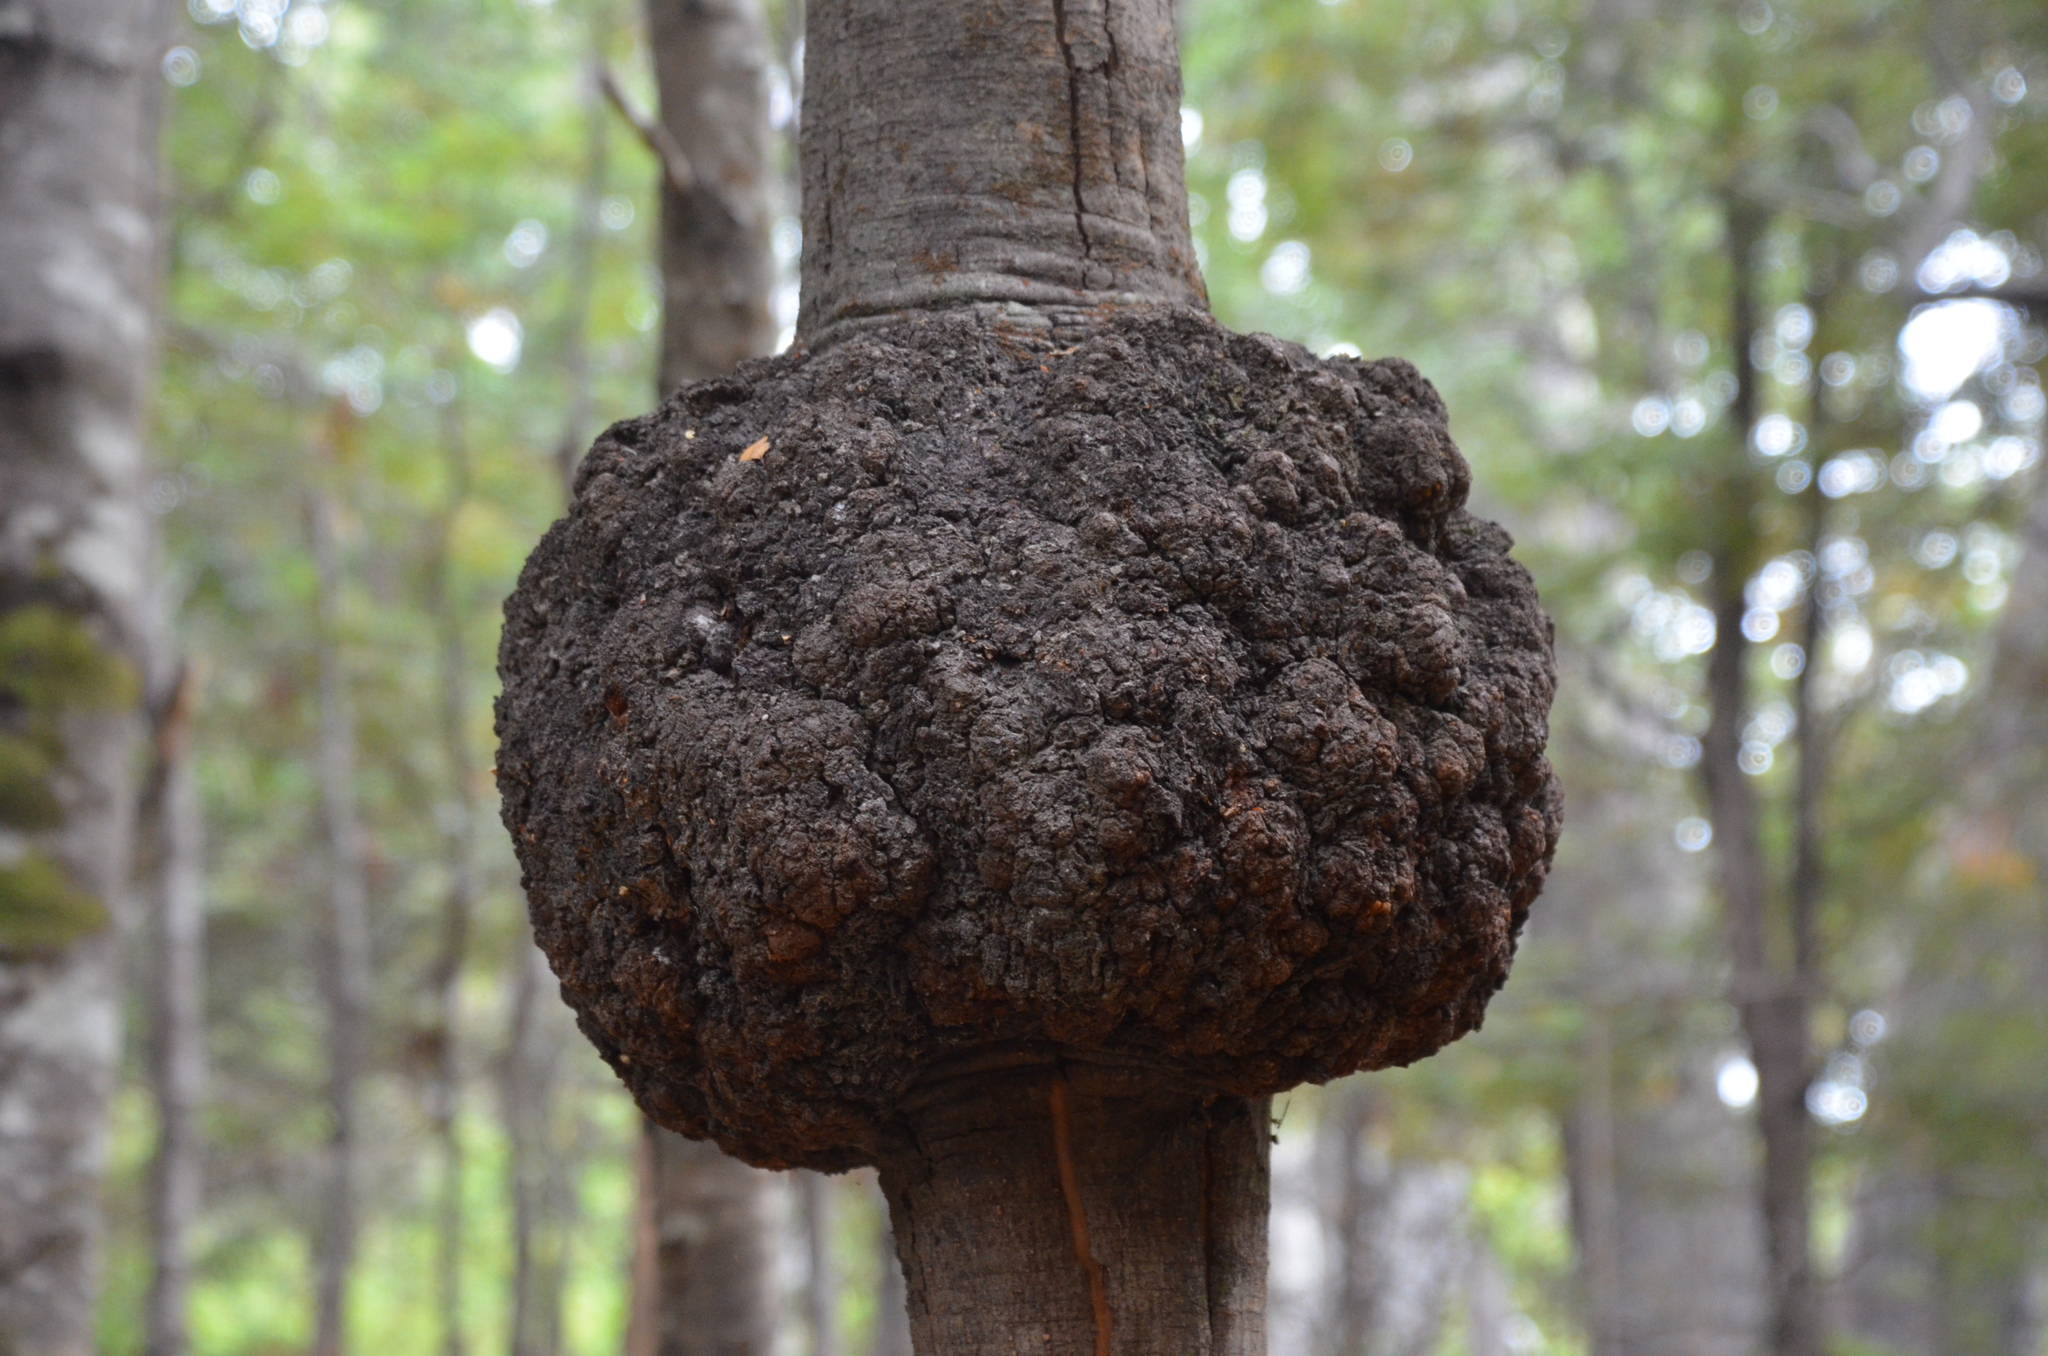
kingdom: Fungi
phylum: Ascomycota
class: Leotiomycetes
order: Cyttariales
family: Cyttariaceae
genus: Cyttaria
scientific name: Cyttaria hariotii
